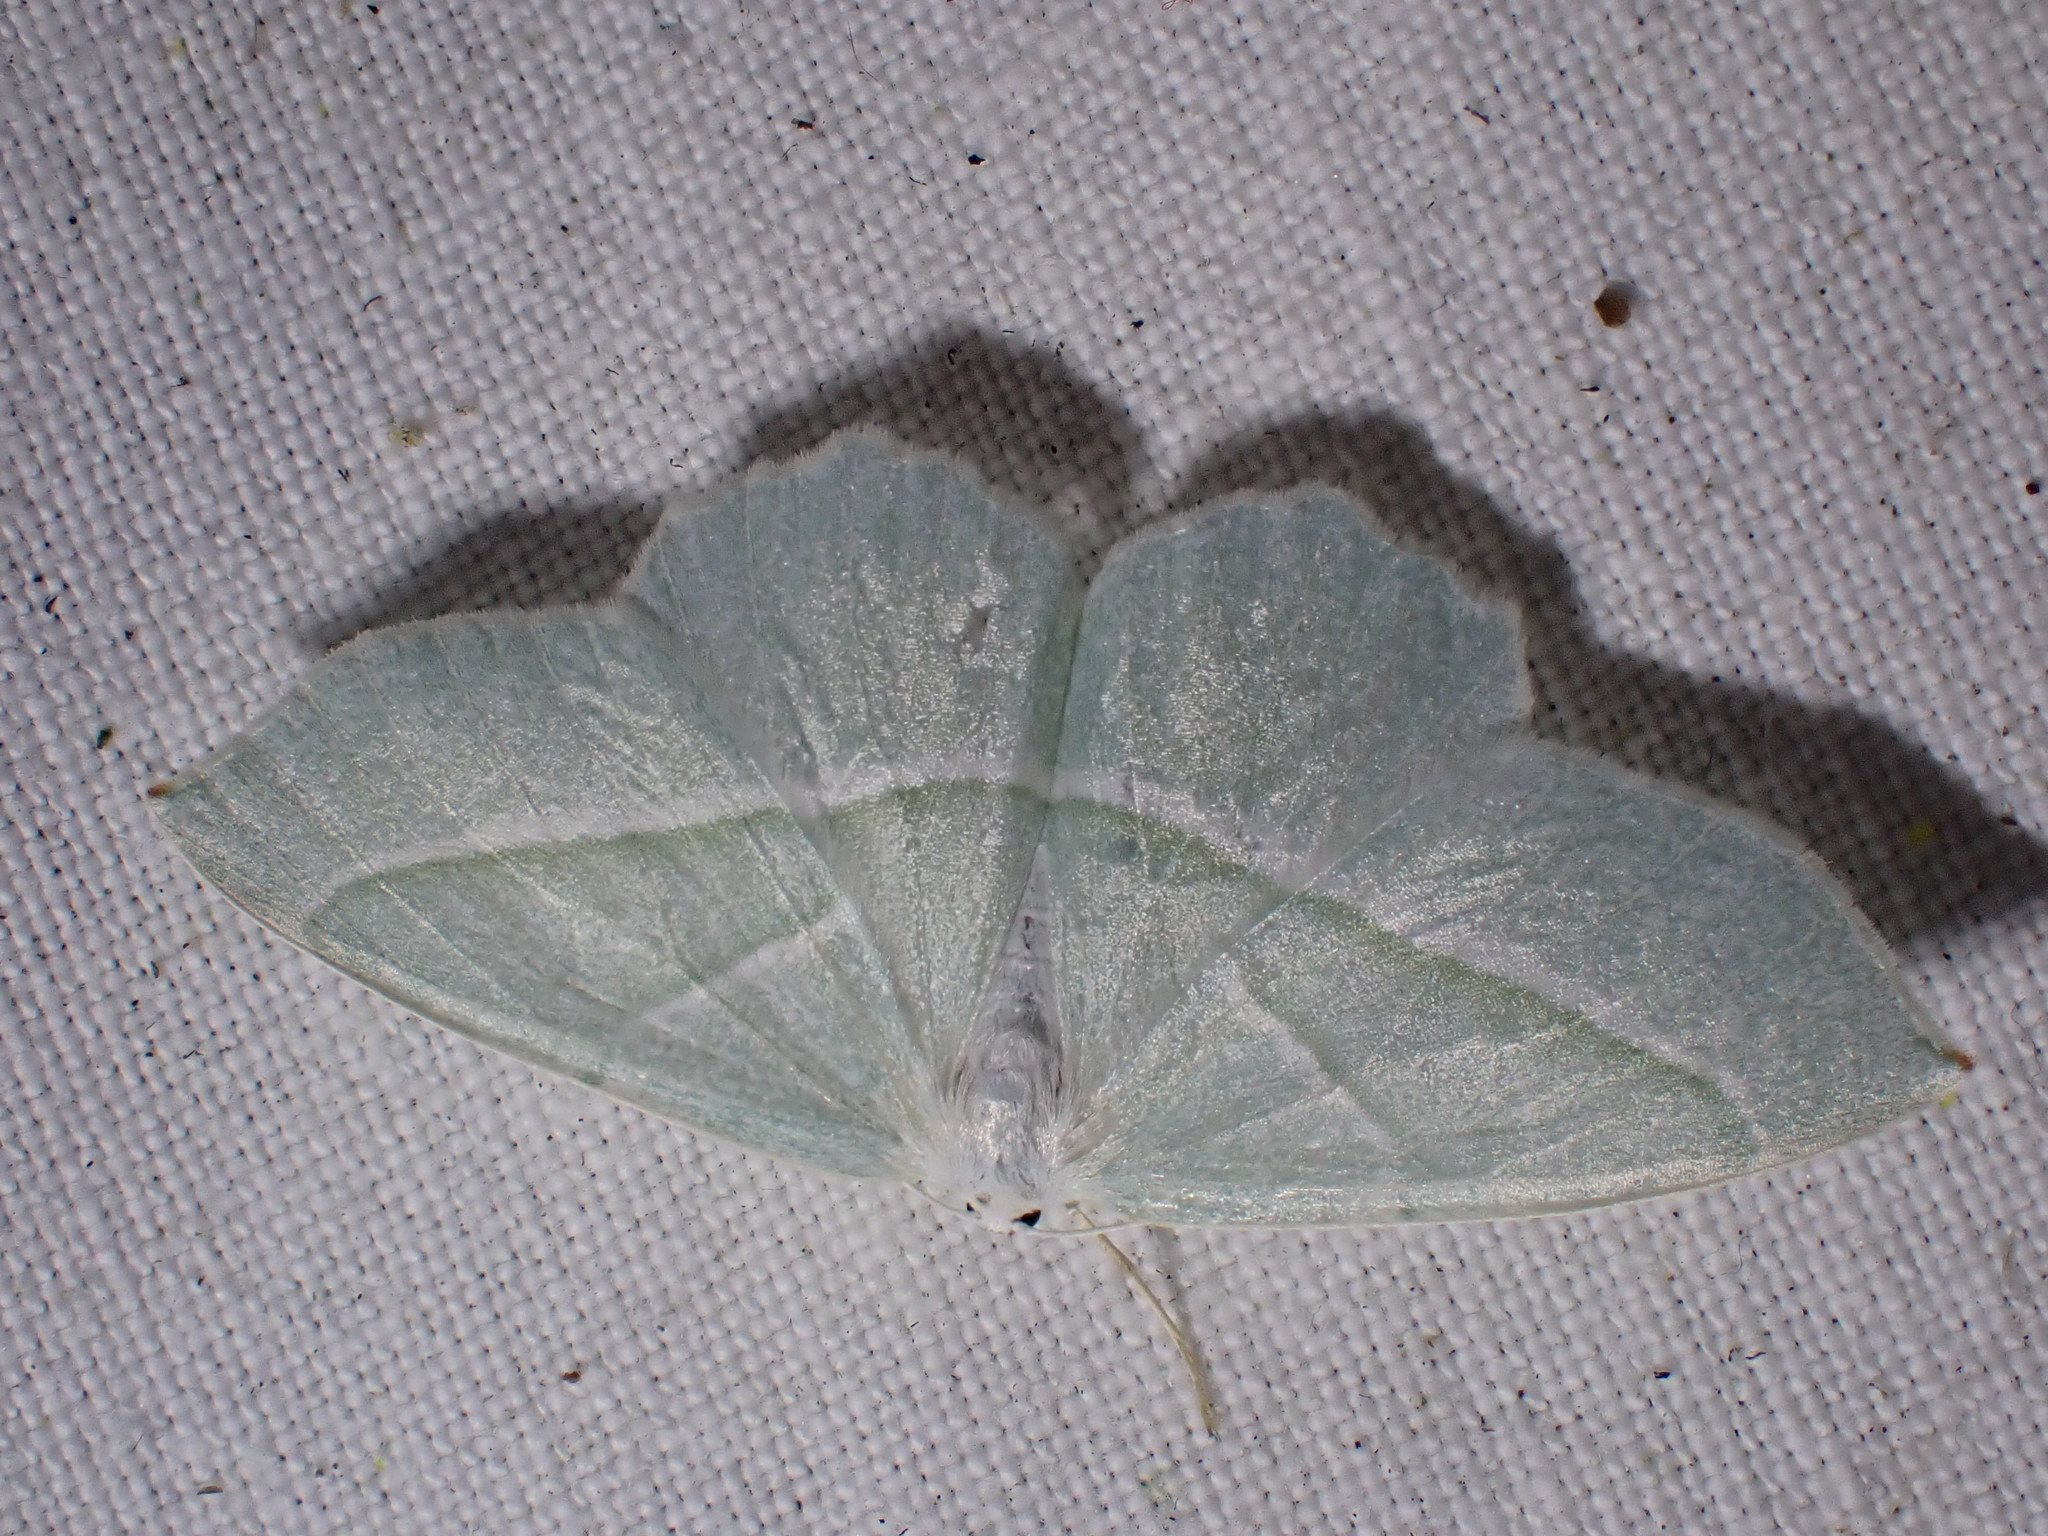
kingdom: Animalia
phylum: Arthropoda
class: Insecta
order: Lepidoptera
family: Geometridae
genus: Campaea
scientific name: Campaea margaritaria
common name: Light emerald
